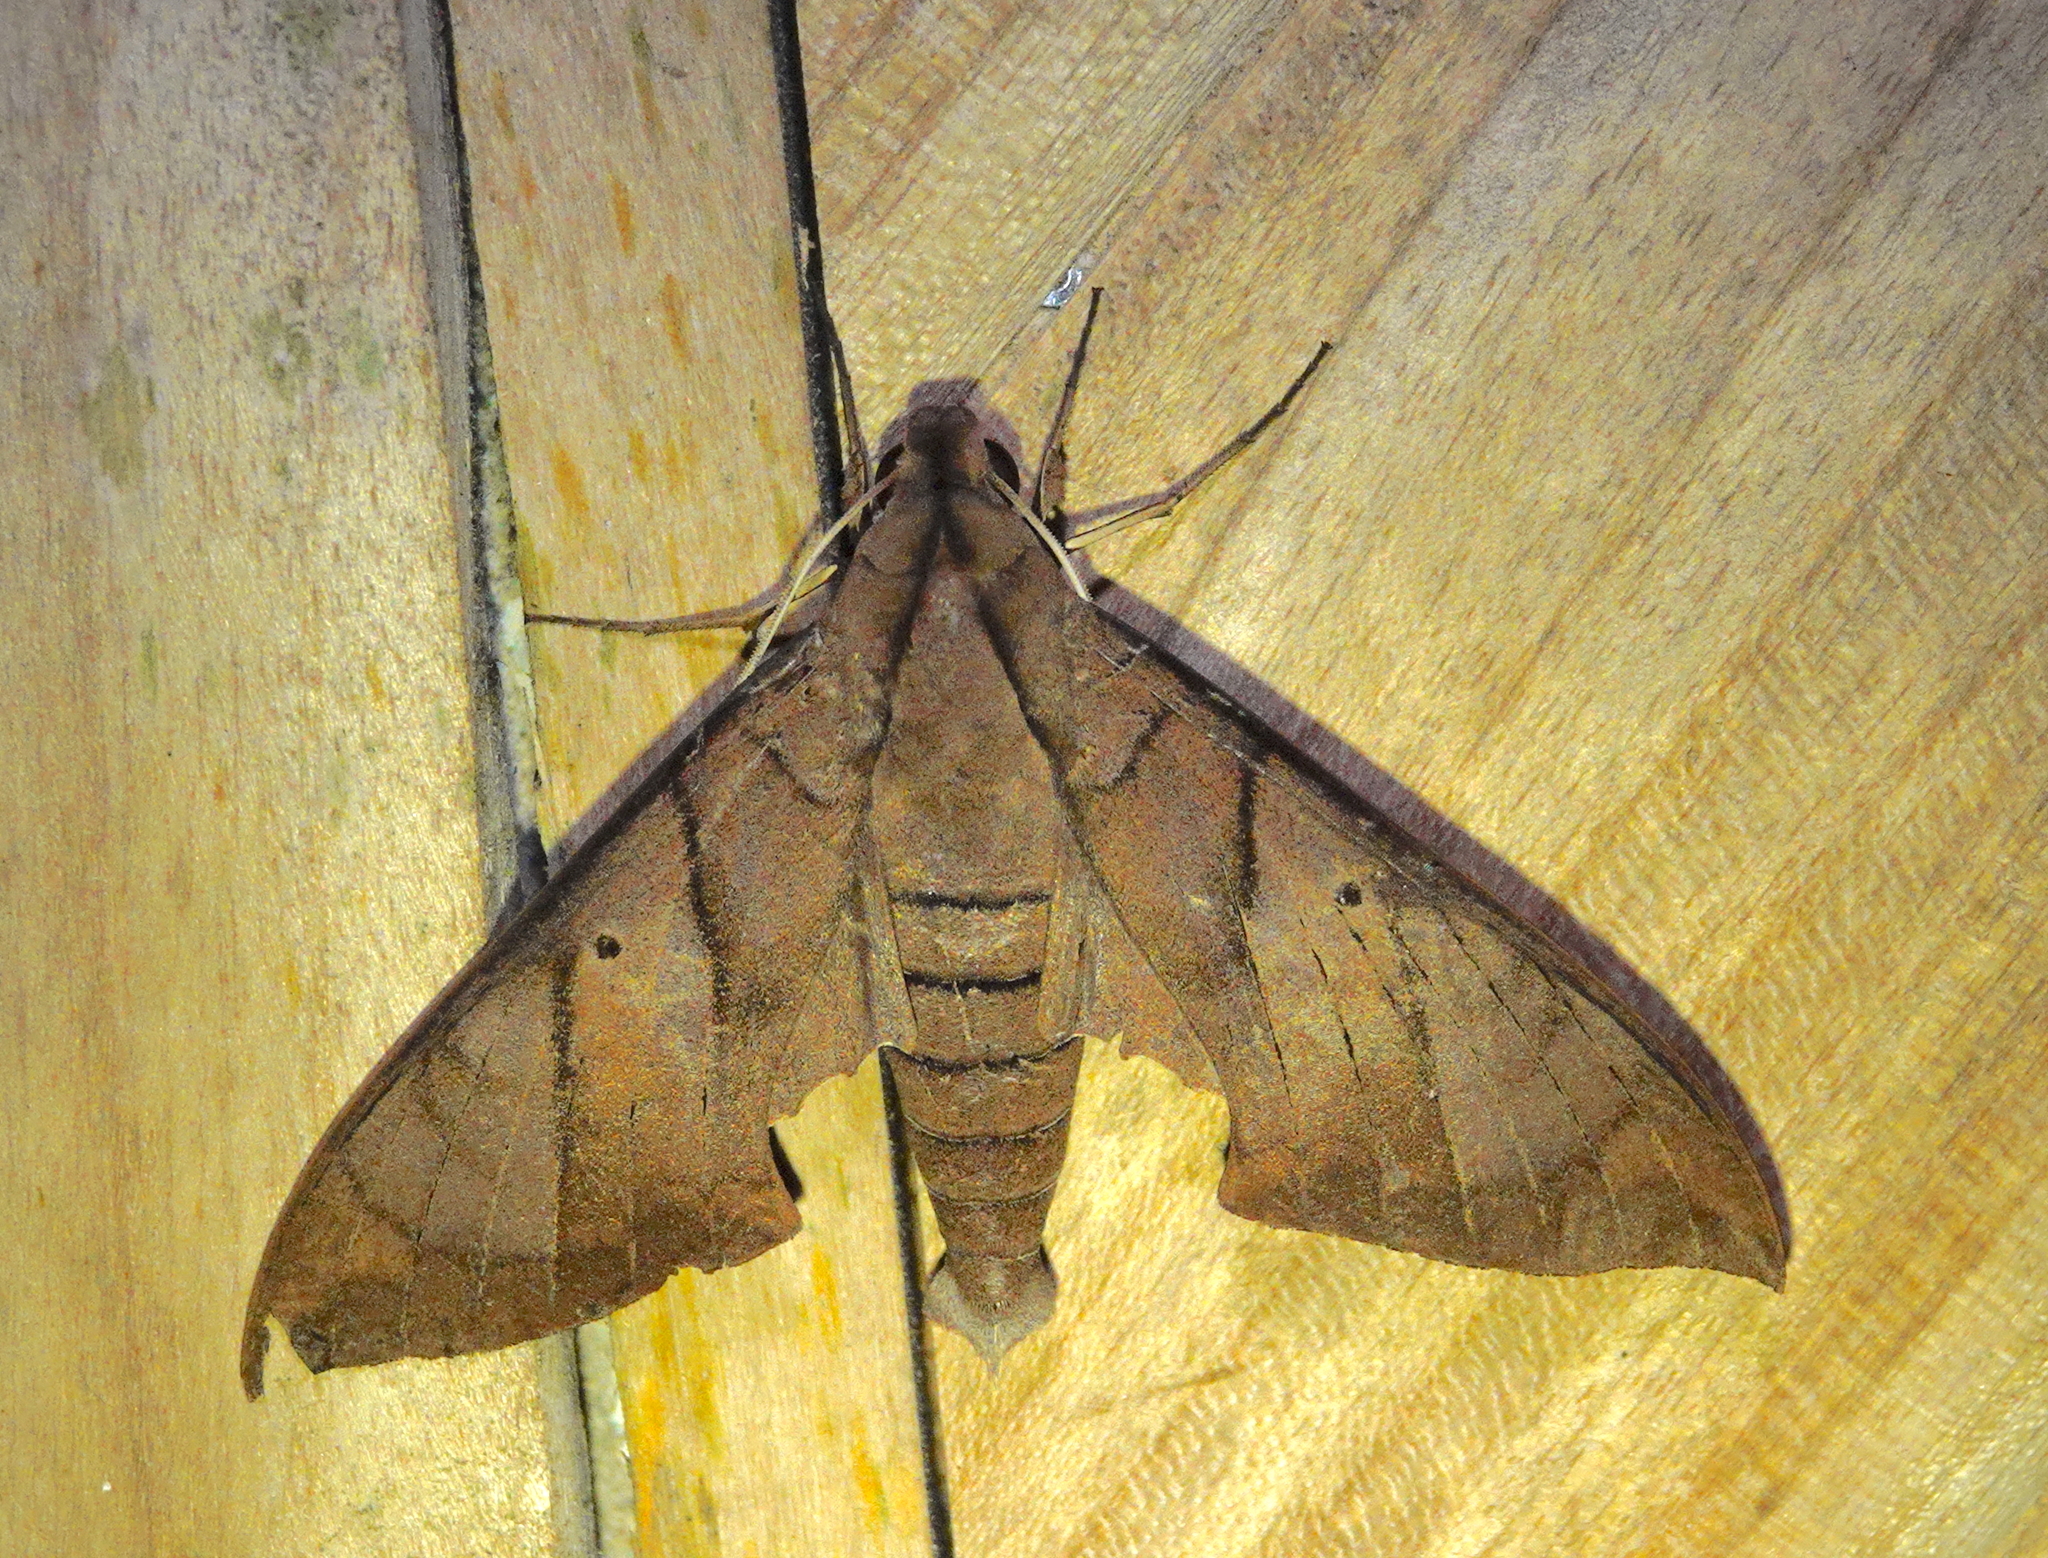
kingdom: Animalia
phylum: Arthropoda
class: Insecta
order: Lepidoptera
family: Sphingidae
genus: Pachylia
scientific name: Pachylia darceta
